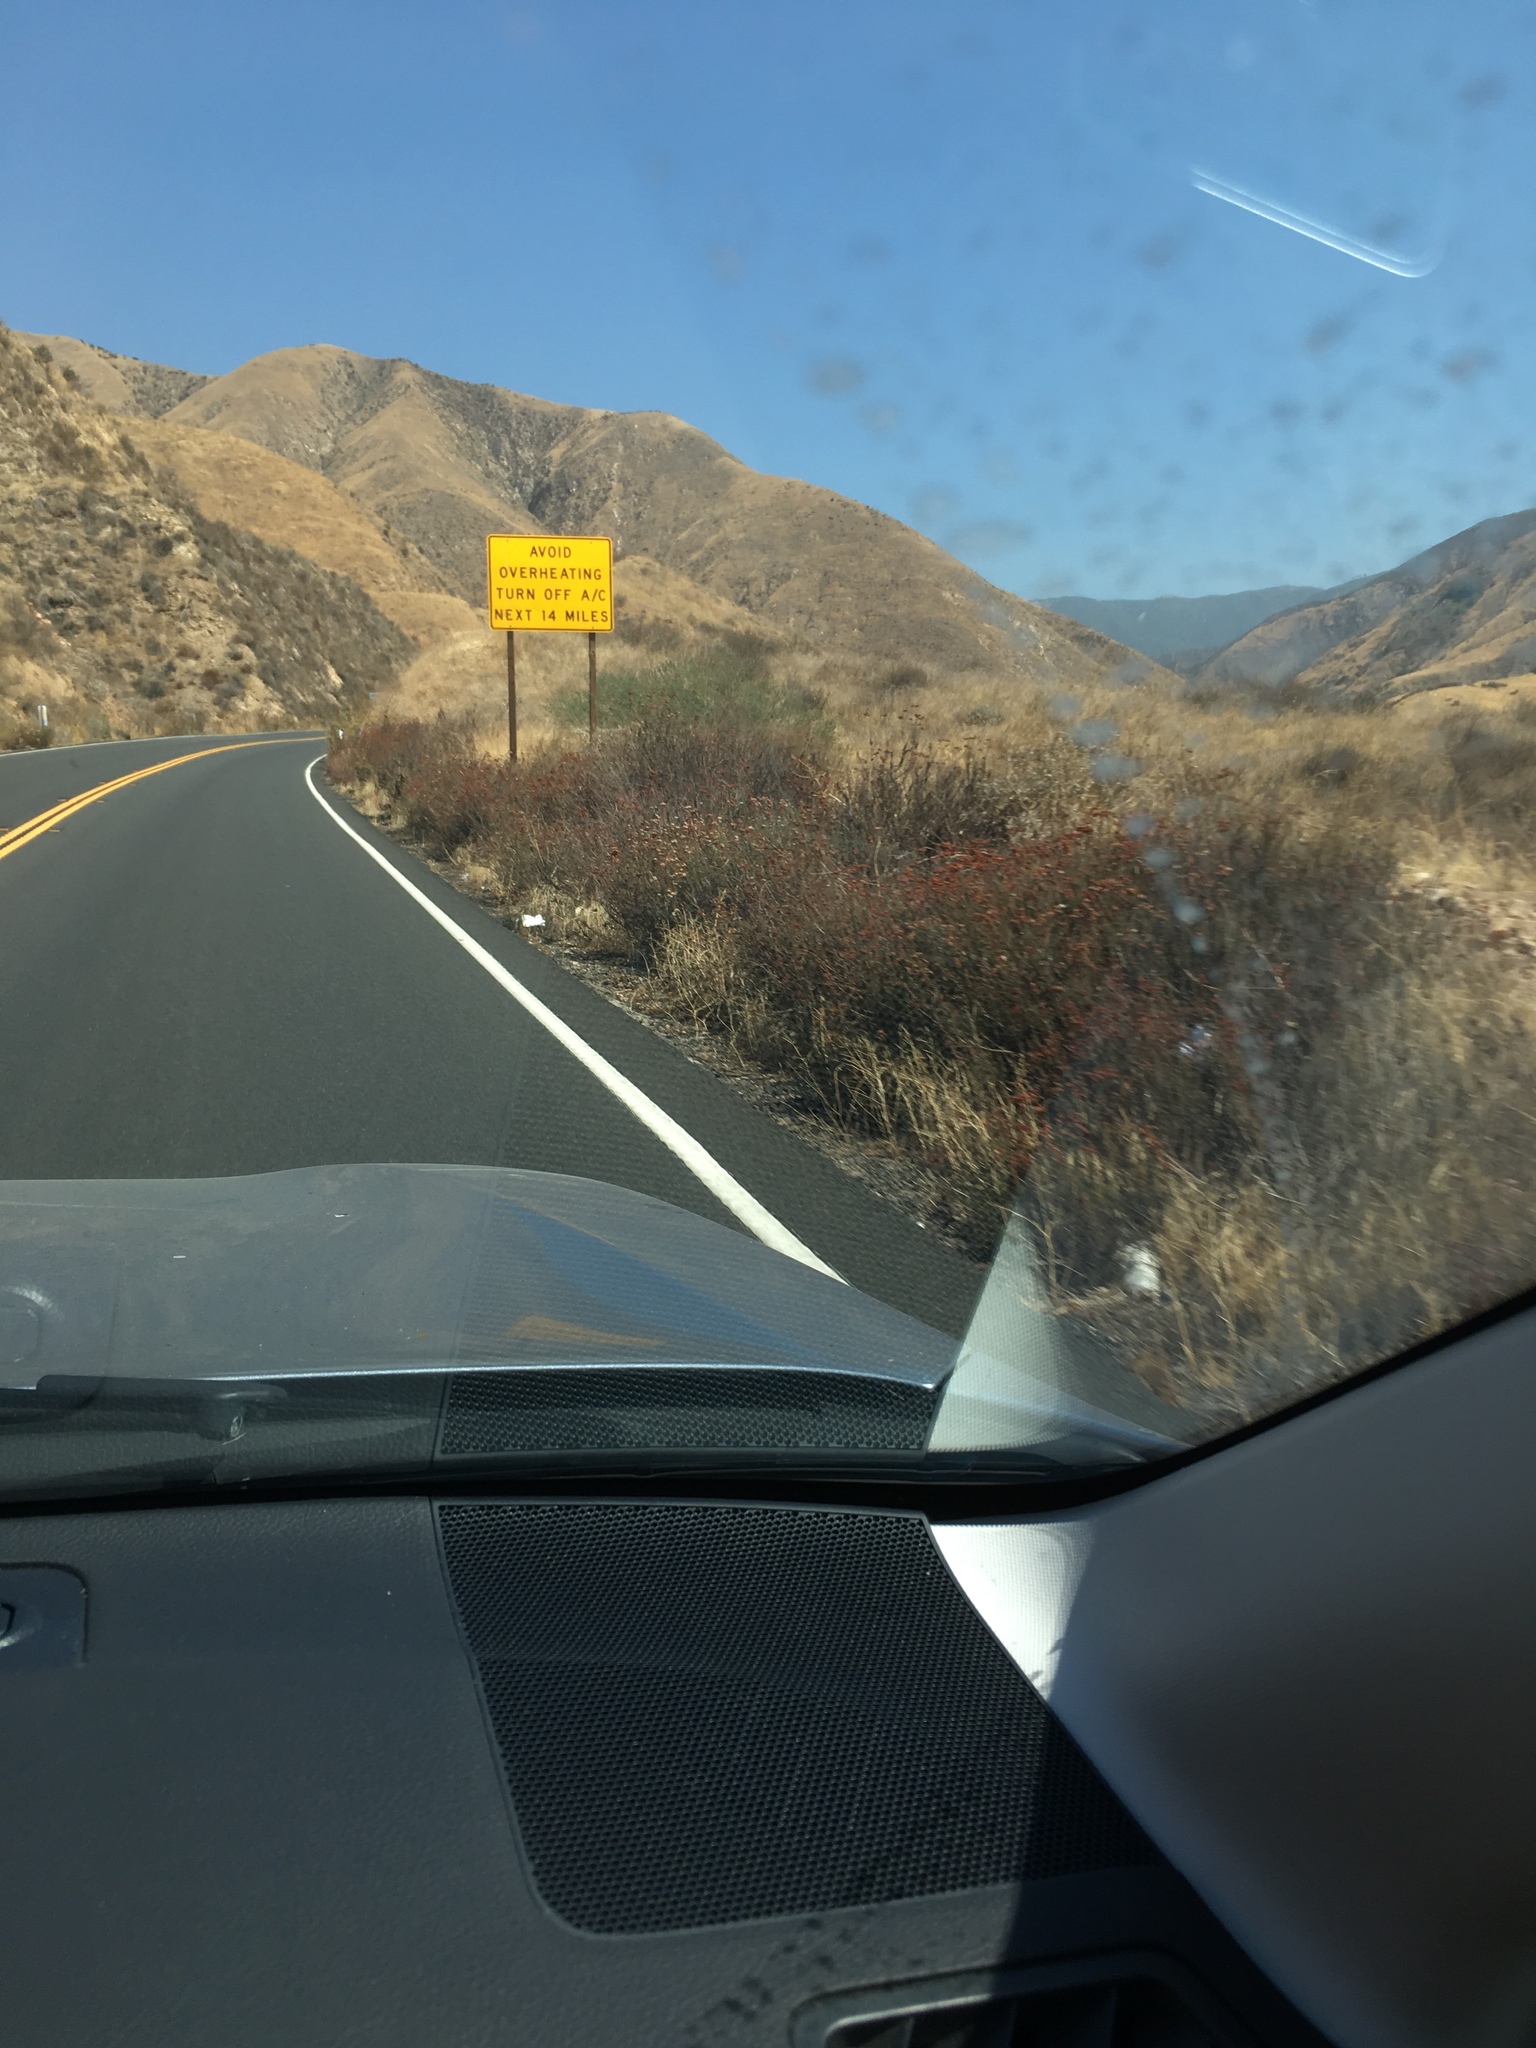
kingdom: Plantae
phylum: Tracheophyta
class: Magnoliopsida
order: Caryophyllales
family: Polygonaceae
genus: Eriogonum
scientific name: Eriogonum fasciculatum
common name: California wild buckwheat
